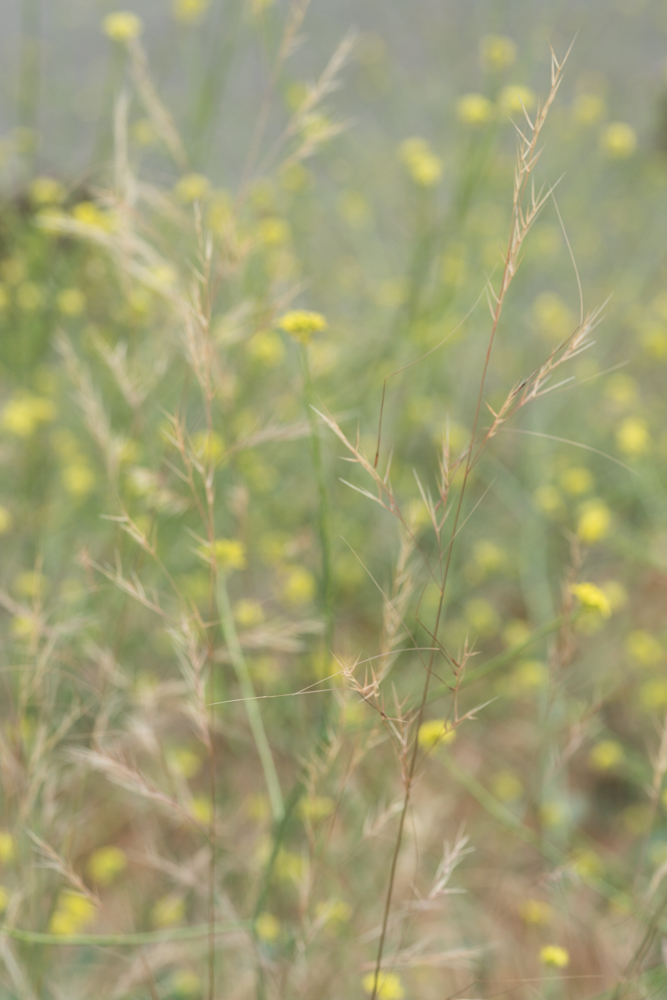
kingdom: Plantae
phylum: Tracheophyta
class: Liliopsida
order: Poales
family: Poaceae
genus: Nassella
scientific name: Nassella pulchra
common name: Purple needlegrass
